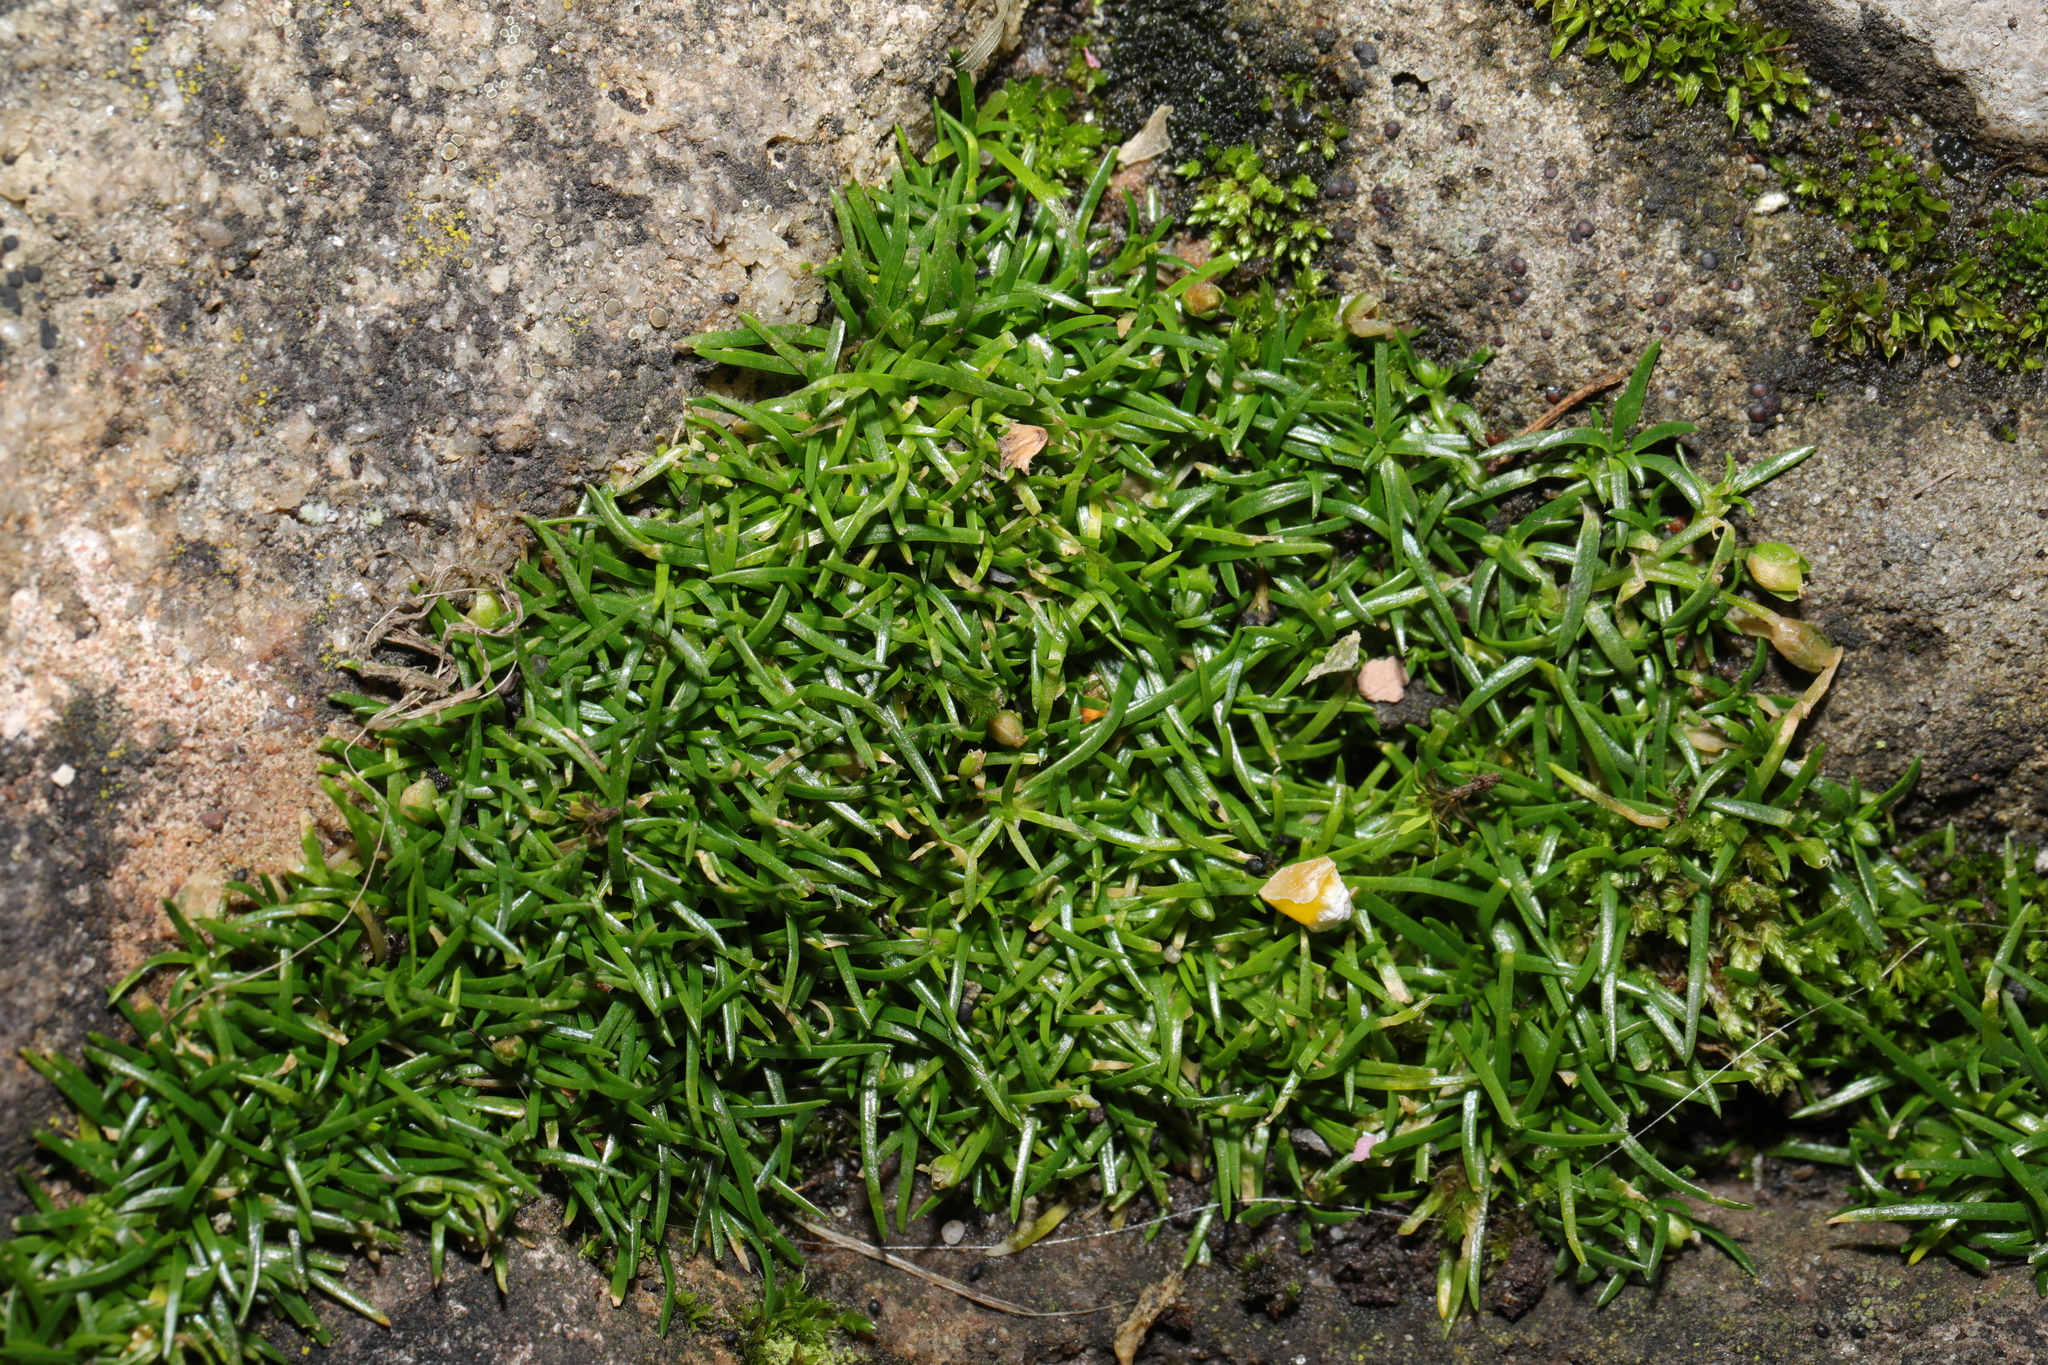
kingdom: Plantae
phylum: Tracheophyta
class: Magnoliopsida
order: Caryophyllales
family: Caryophyllaceae
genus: Sagina
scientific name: Sagina procumbens
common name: Procumbent pearlwort
